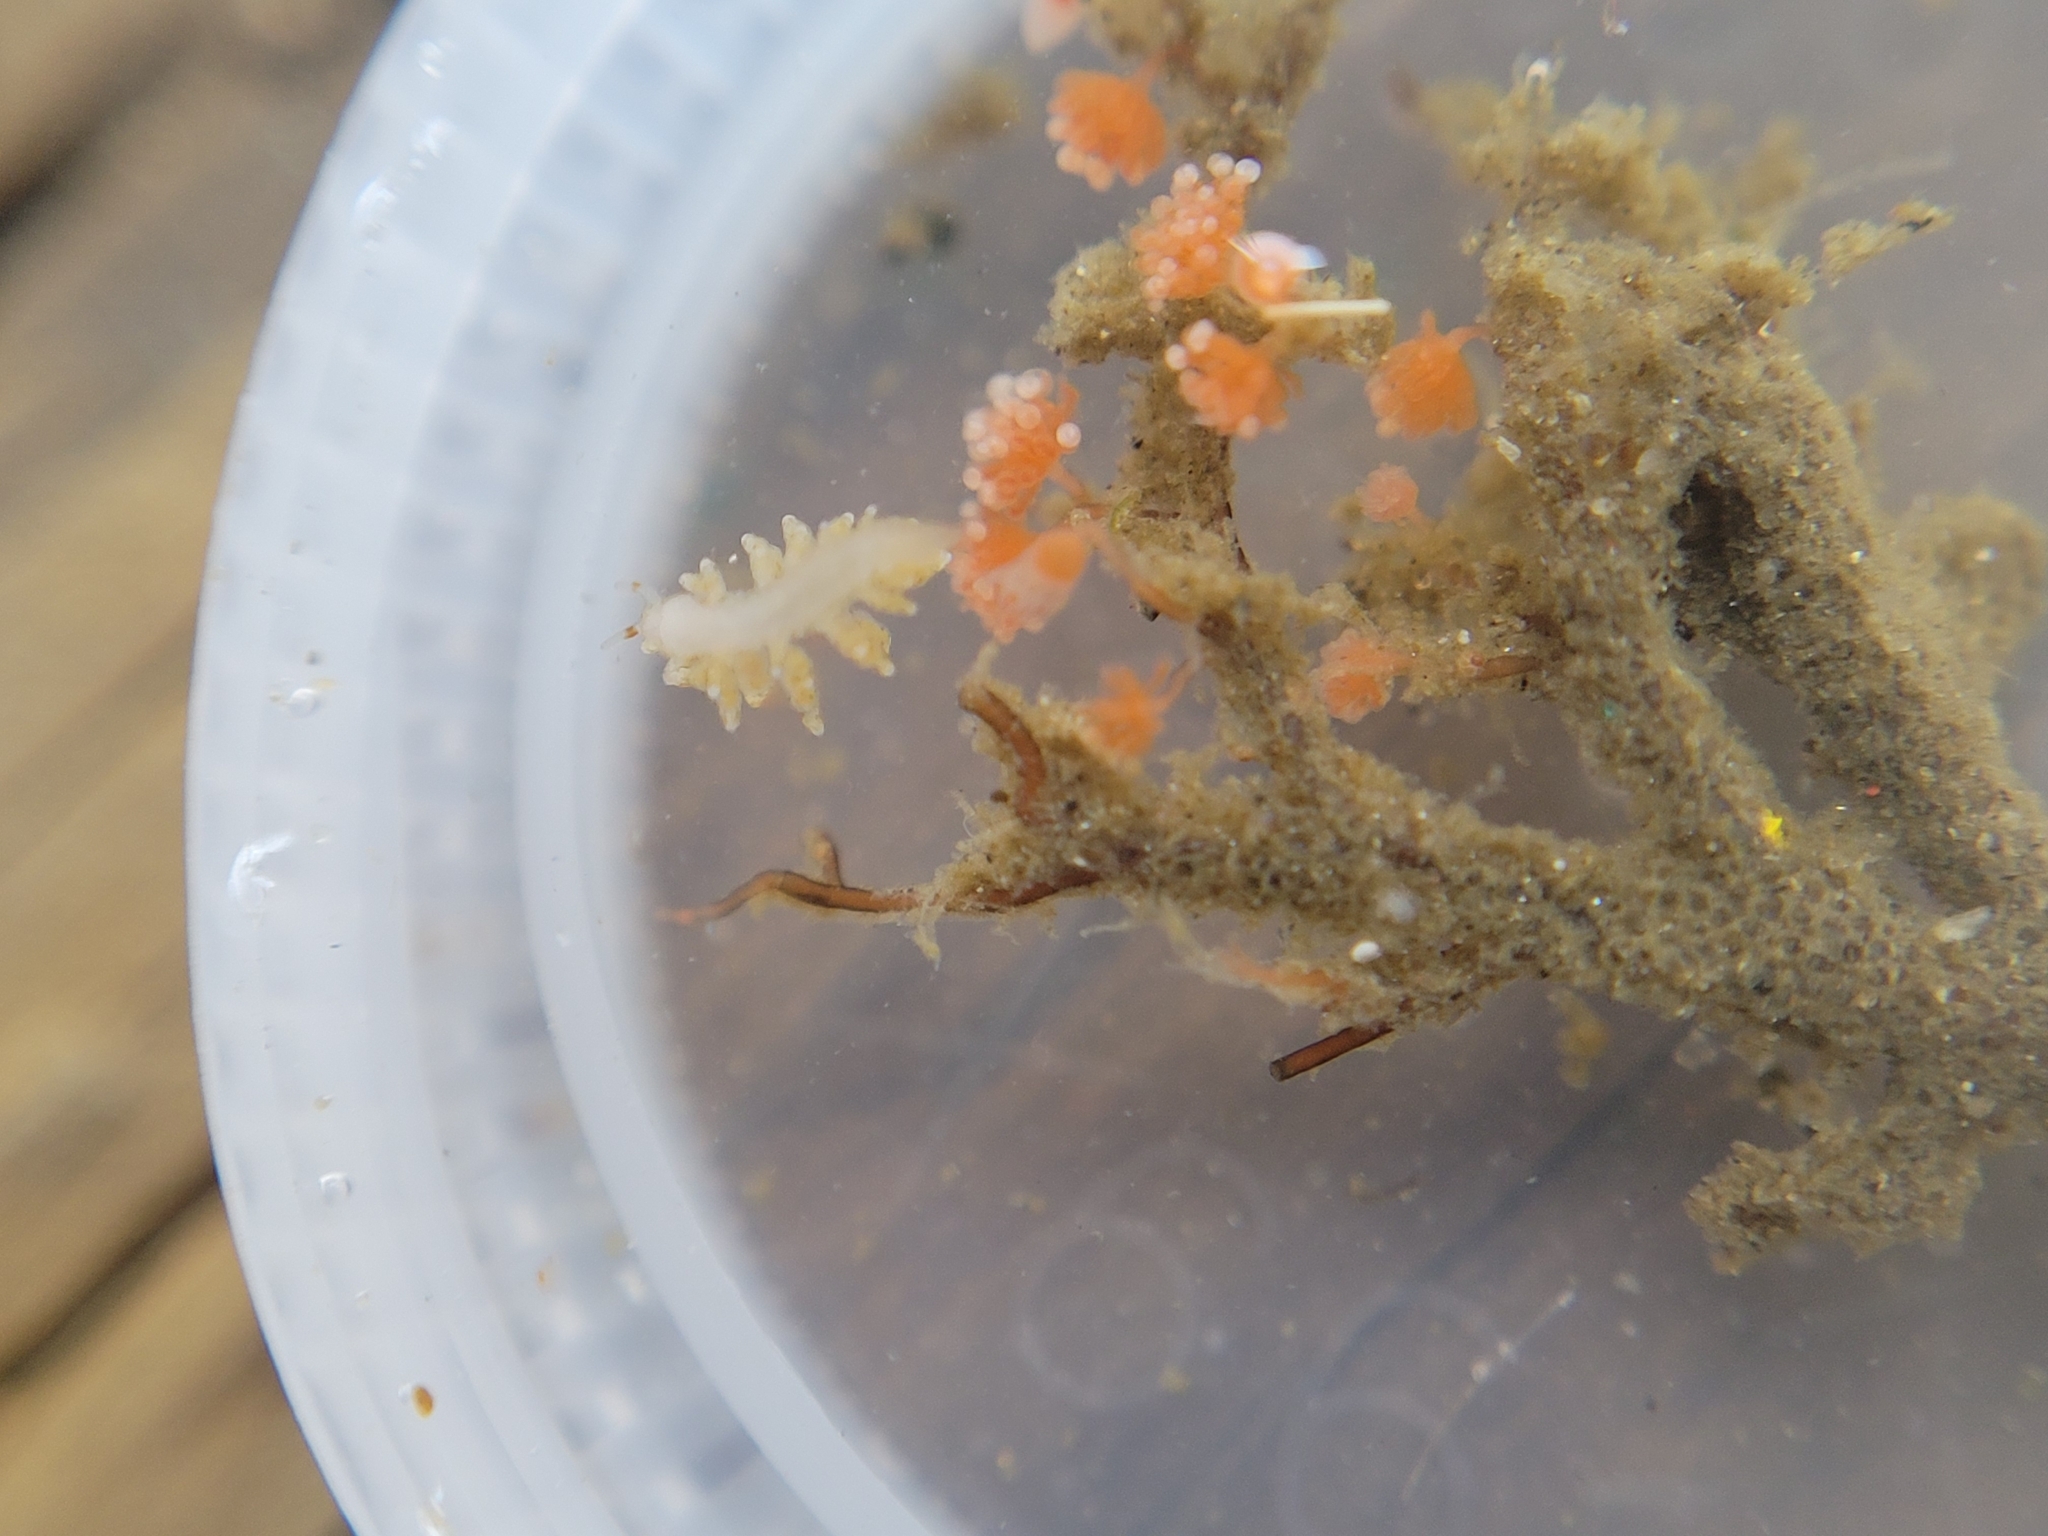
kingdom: Animalia
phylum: Mollusca
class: Gastropoda
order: Nudibranchia
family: Eubranchidae
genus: Eubranchus
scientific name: Eubranchus rustyus
